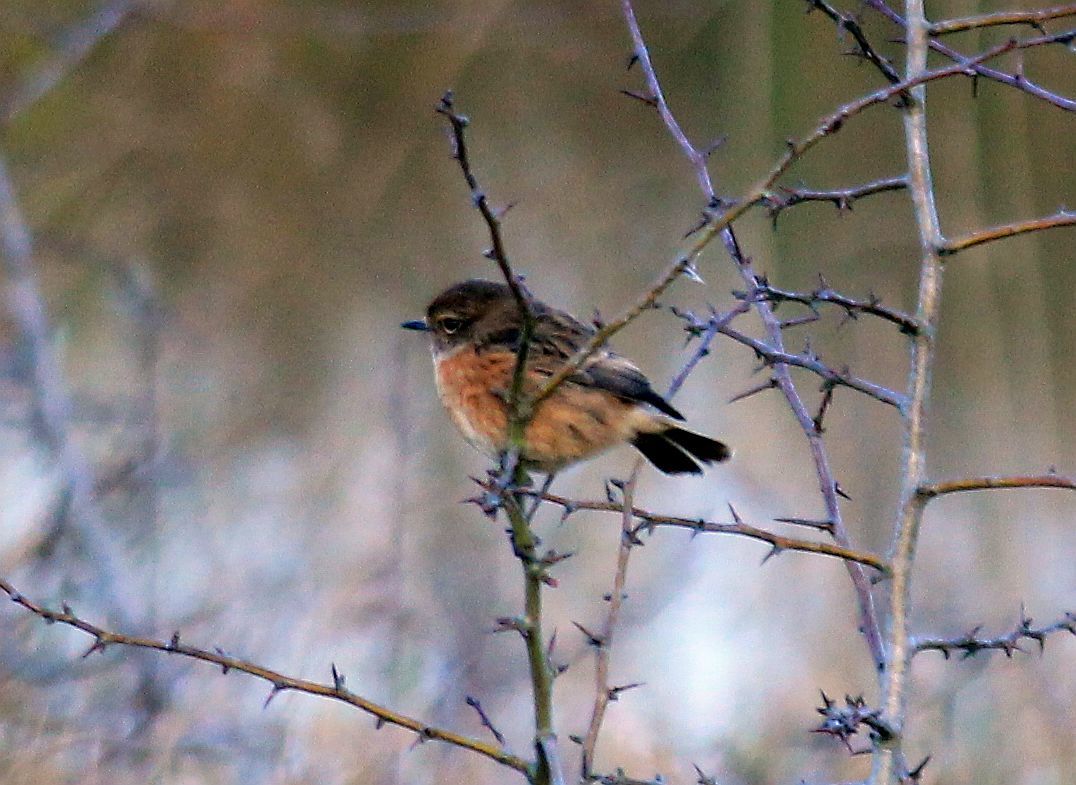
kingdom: Animalia
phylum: Chordata
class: Aves
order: Passeriformes
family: Muscicapidae
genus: Saxicola
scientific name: Saxicola rubicola
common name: European stonechat
